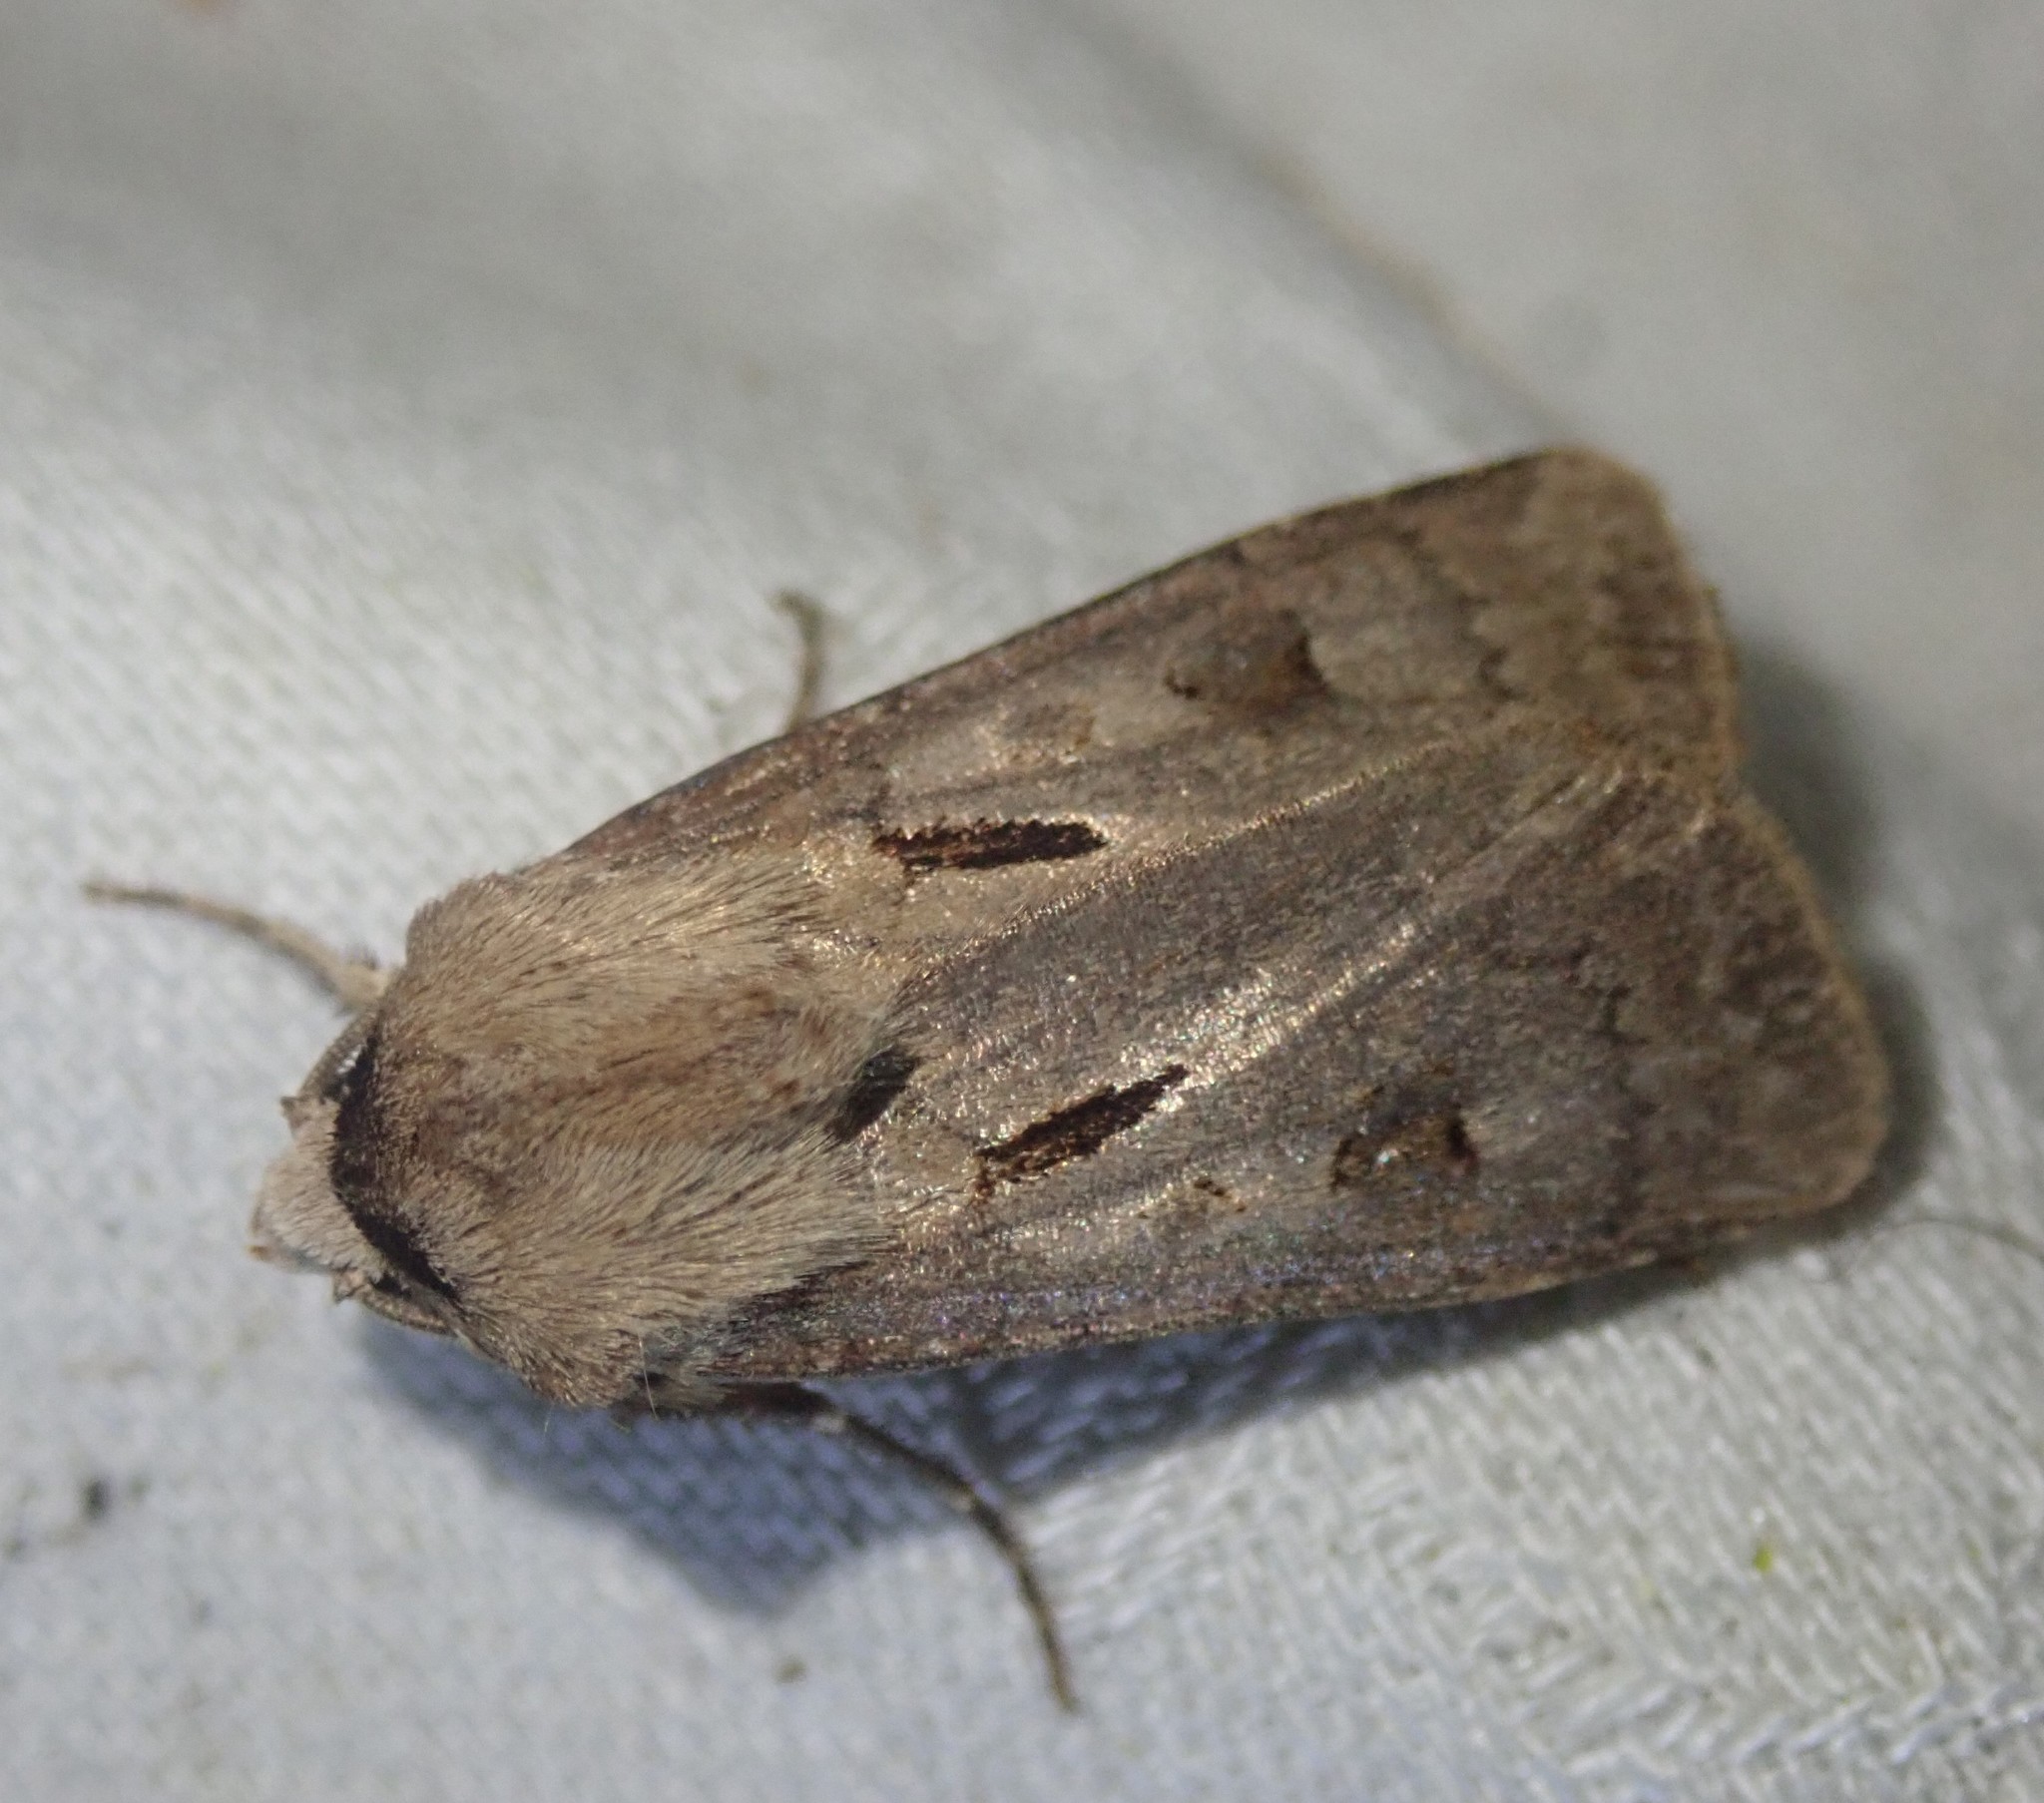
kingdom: Animalia
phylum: Arthropoda
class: Insecta
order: Lepidoptera
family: Noctuidae
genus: Agrotis
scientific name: Agrotis exclamationis
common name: Heart and dart
